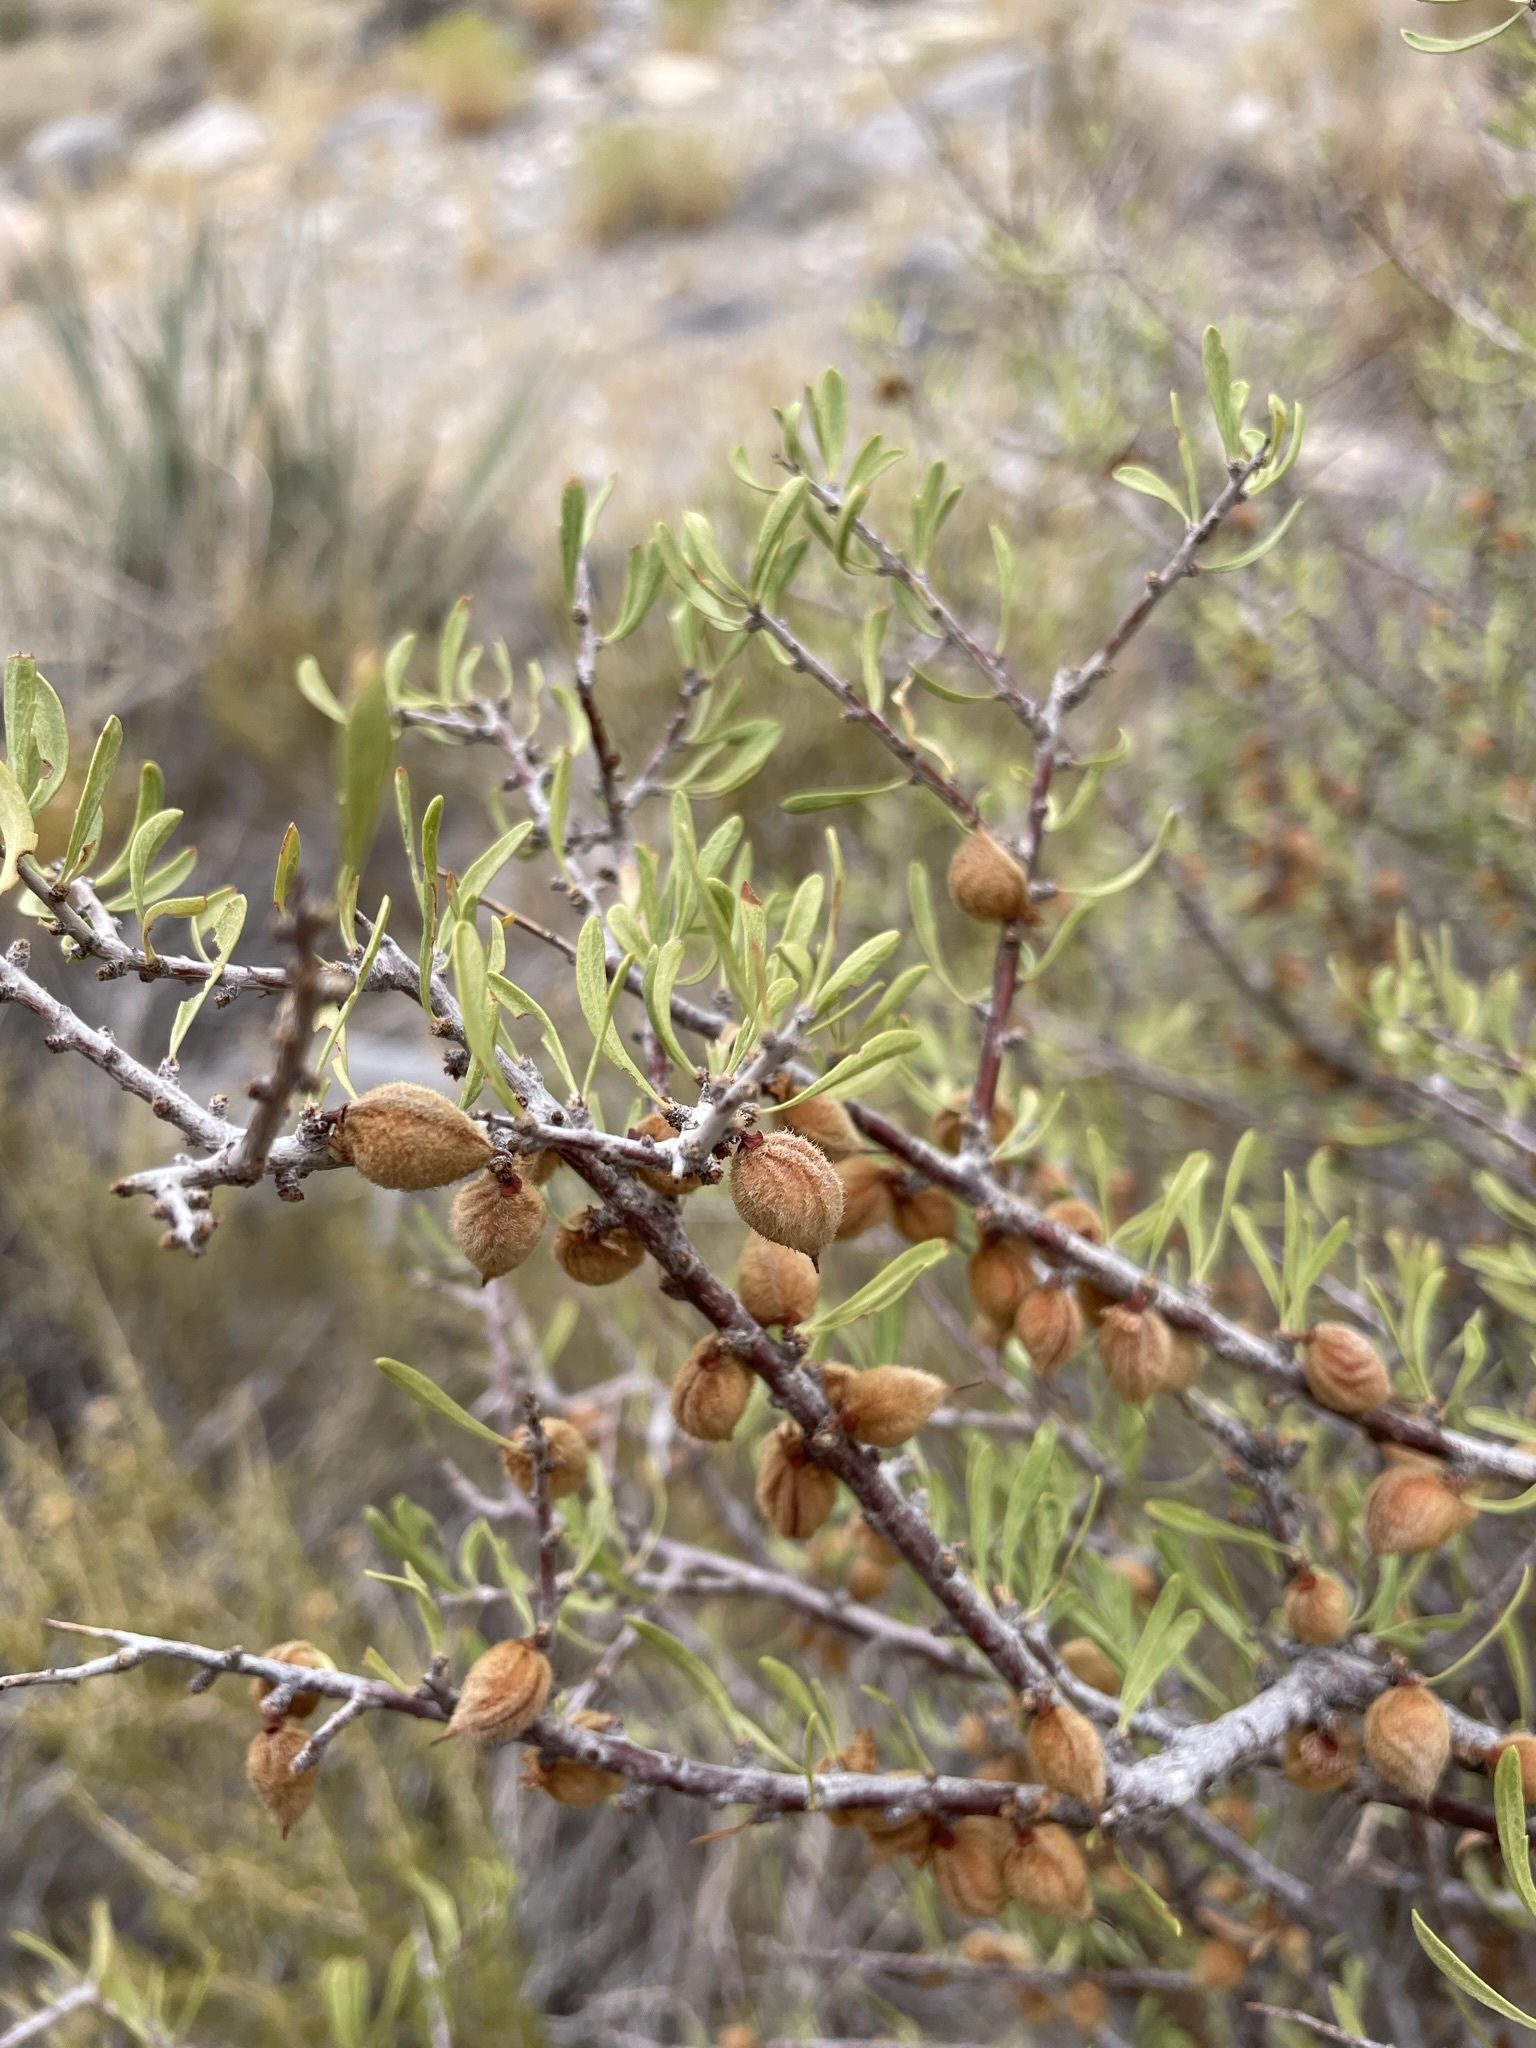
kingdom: Plantae
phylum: Tracheophyta
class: Magnoliopsida
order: Rosales
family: Rosaceae
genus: Prunus
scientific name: Prunus fasciculata
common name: Desert almond
